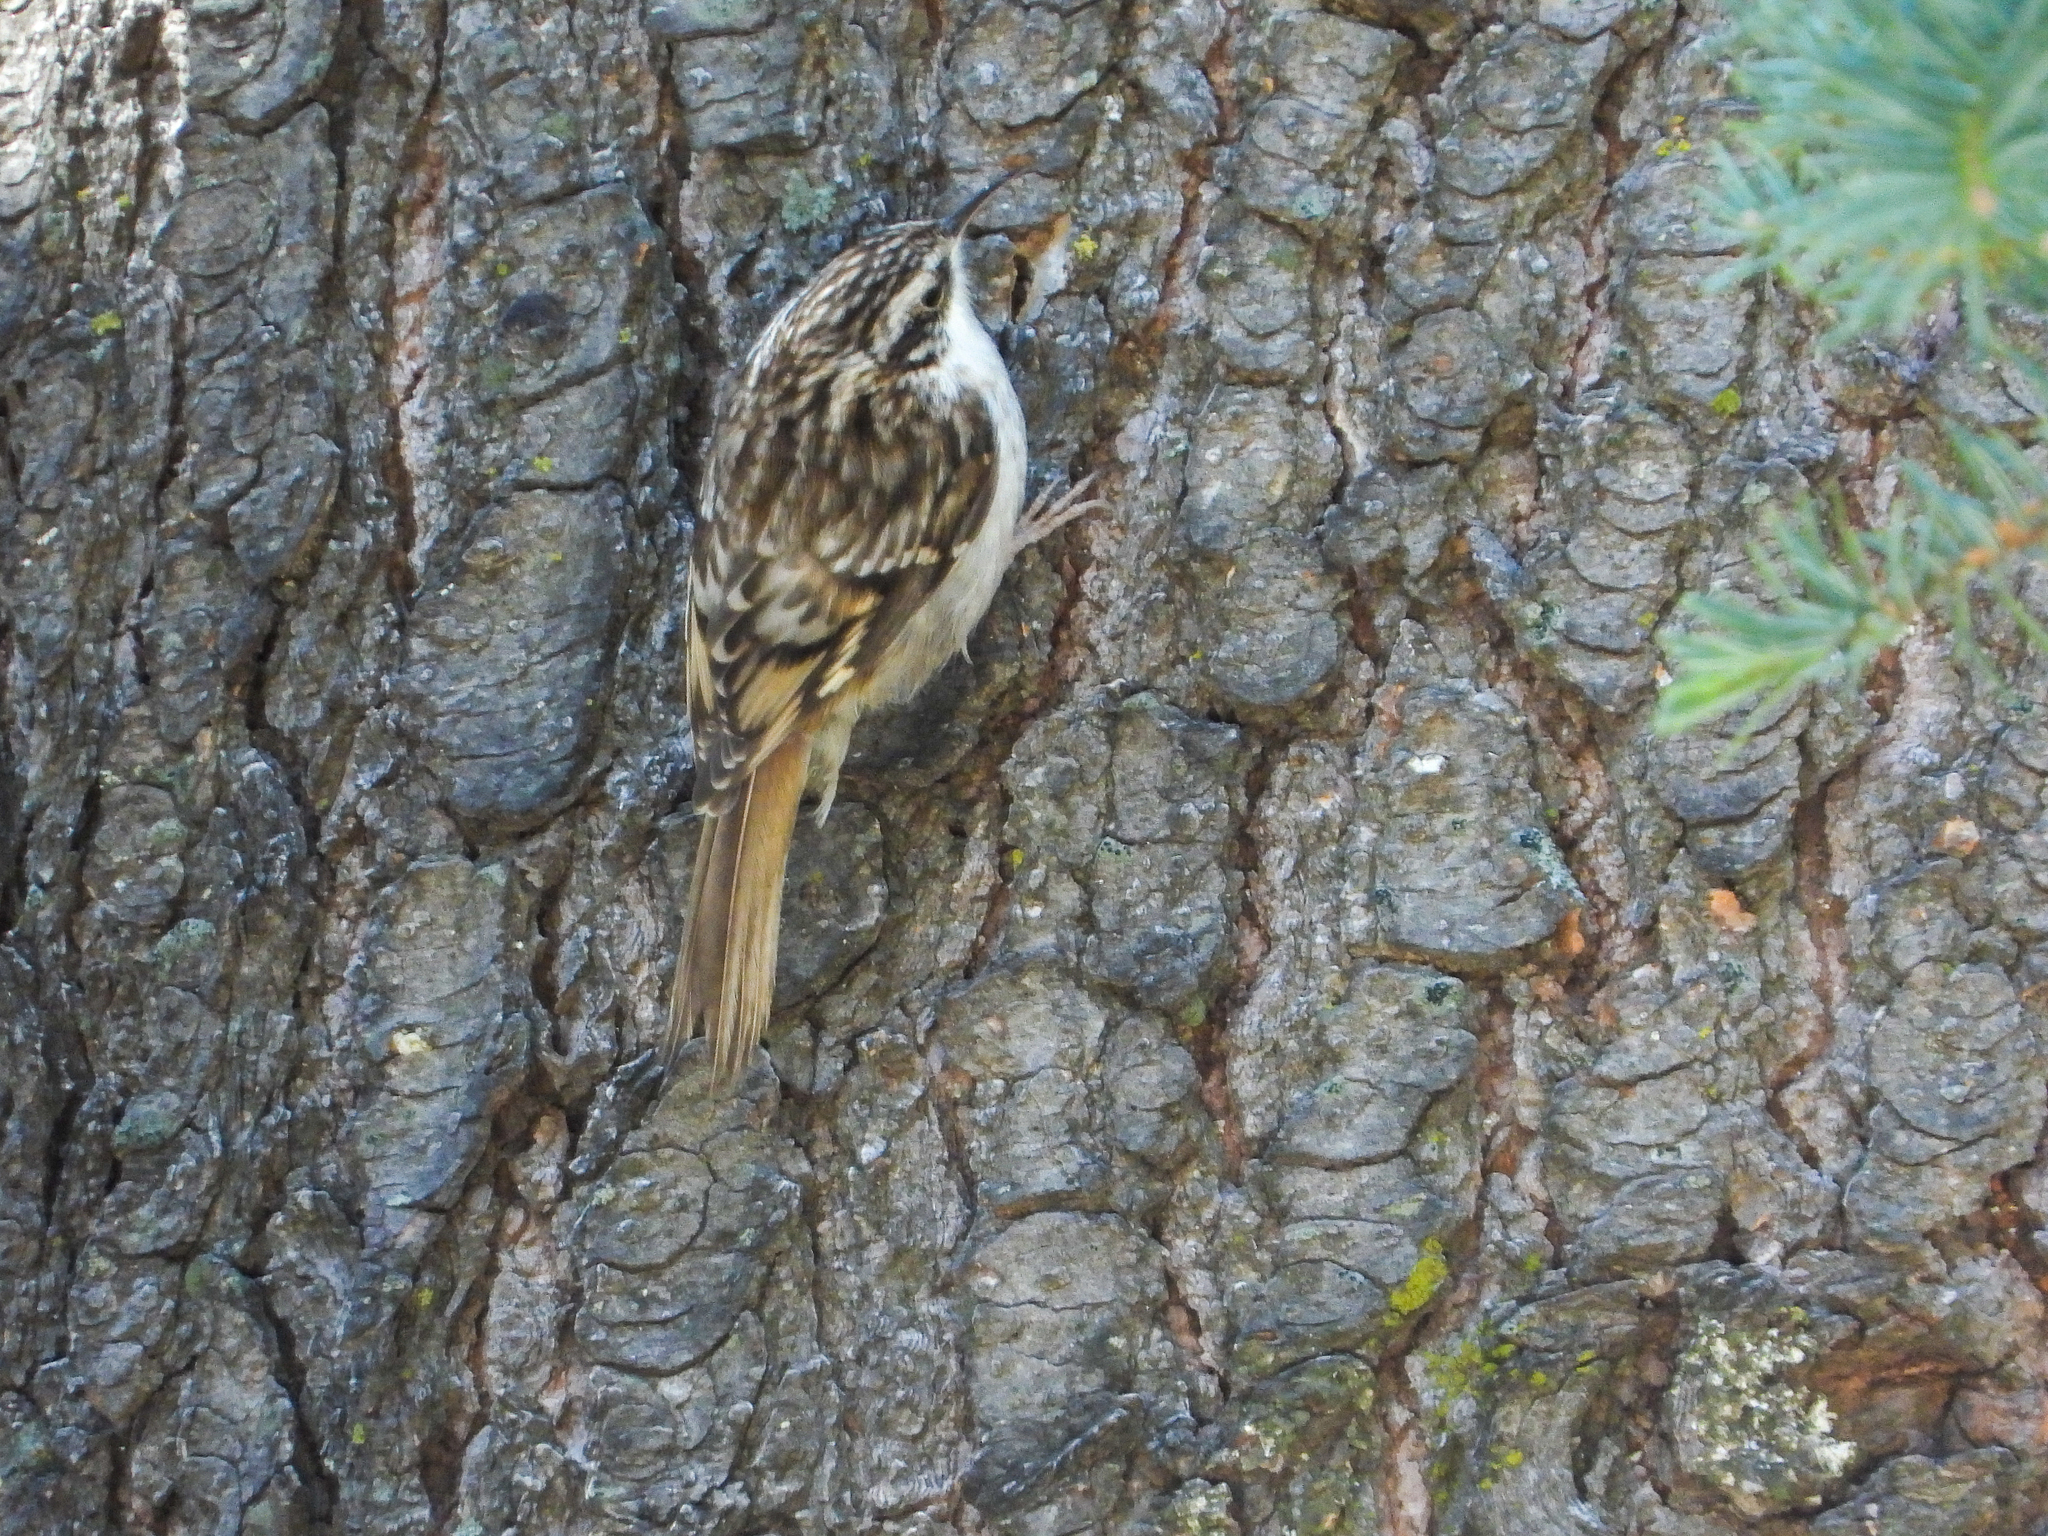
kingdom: Animalia
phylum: Chordata
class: Aves
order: Passeriformes
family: Certhiidae
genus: Certhia
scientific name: Certhia americana
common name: Brown creeper
